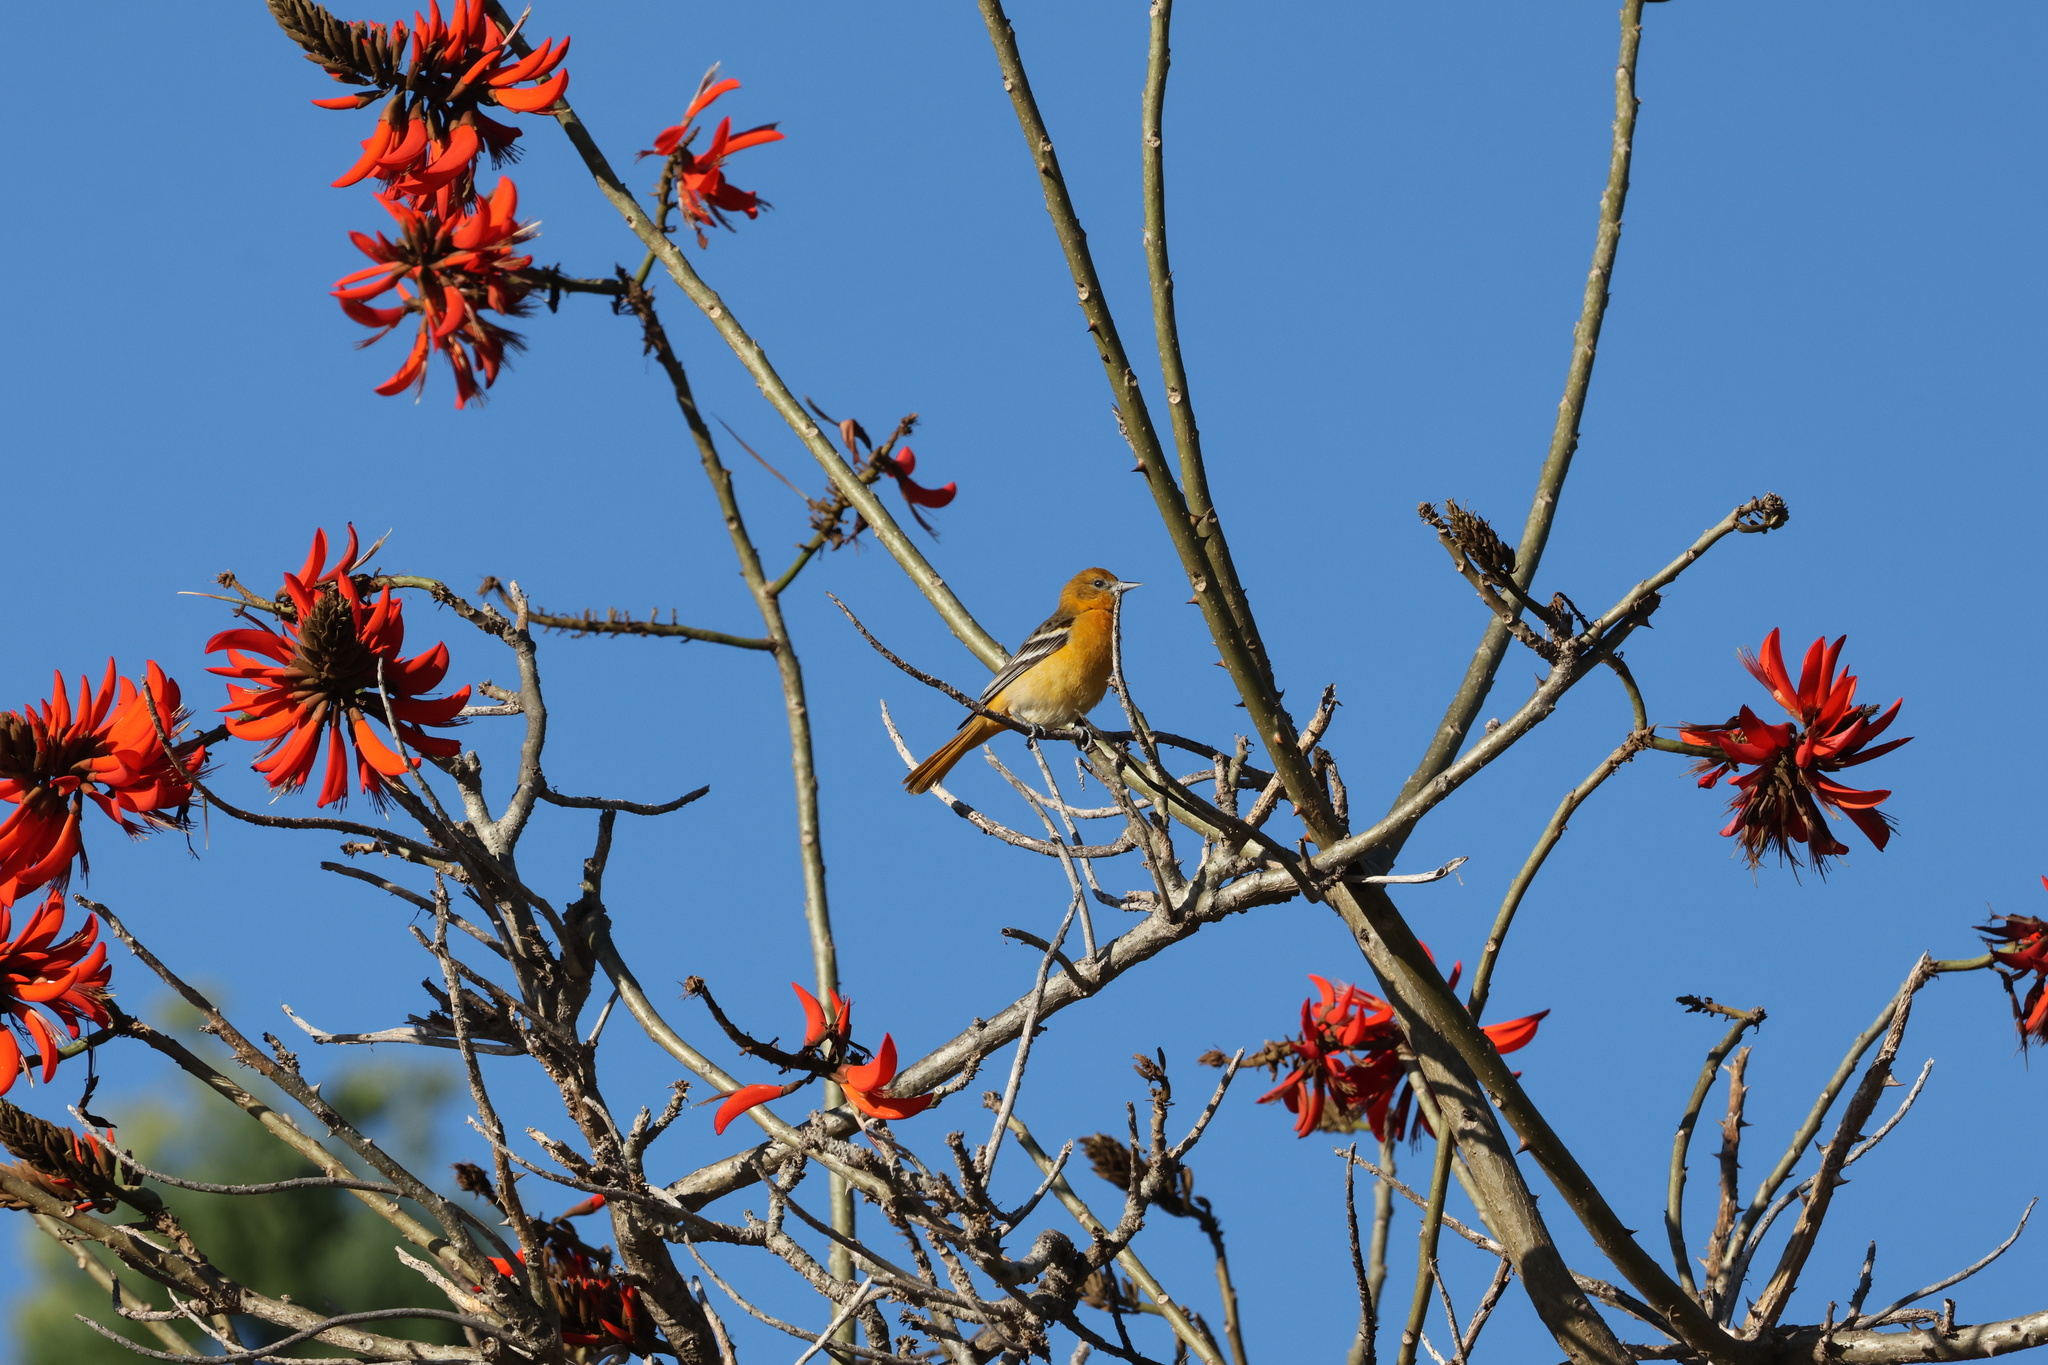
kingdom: Animalia
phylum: Chordata
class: Aves
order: Passeriformes
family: Icteridae
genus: Icterus
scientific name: Icterus galbula
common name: Baltimore oriole
